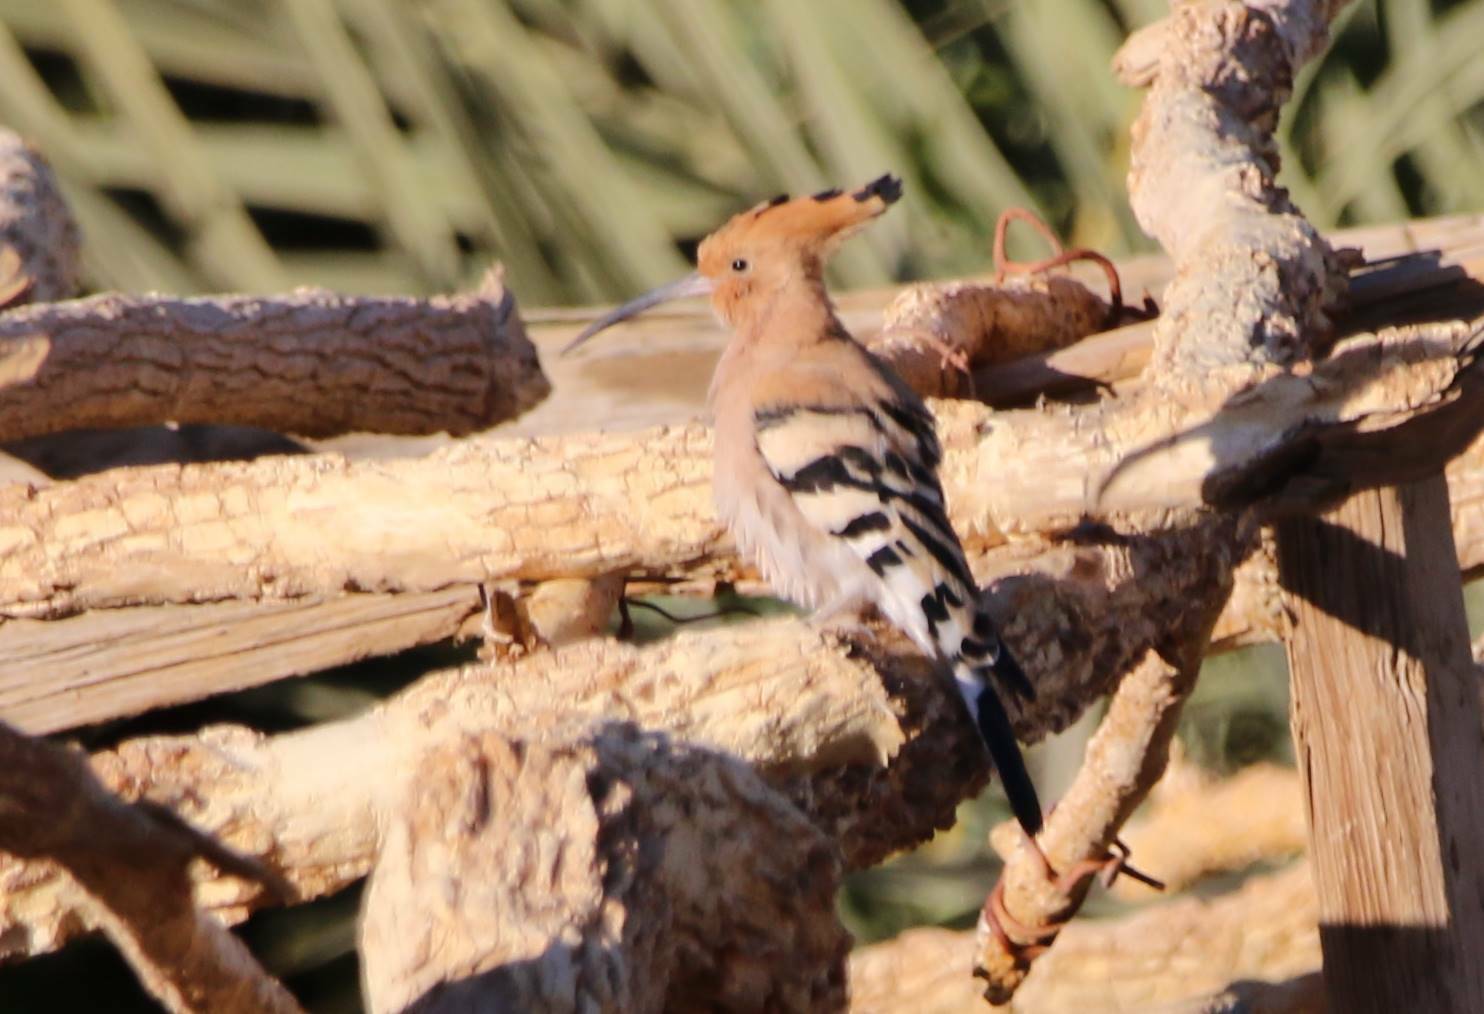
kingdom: Animalia
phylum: Chordata
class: Aves
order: Bucerotiformes
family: Upupidae
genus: Upupa
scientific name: Upupa epops
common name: Eurasian hoopoe
